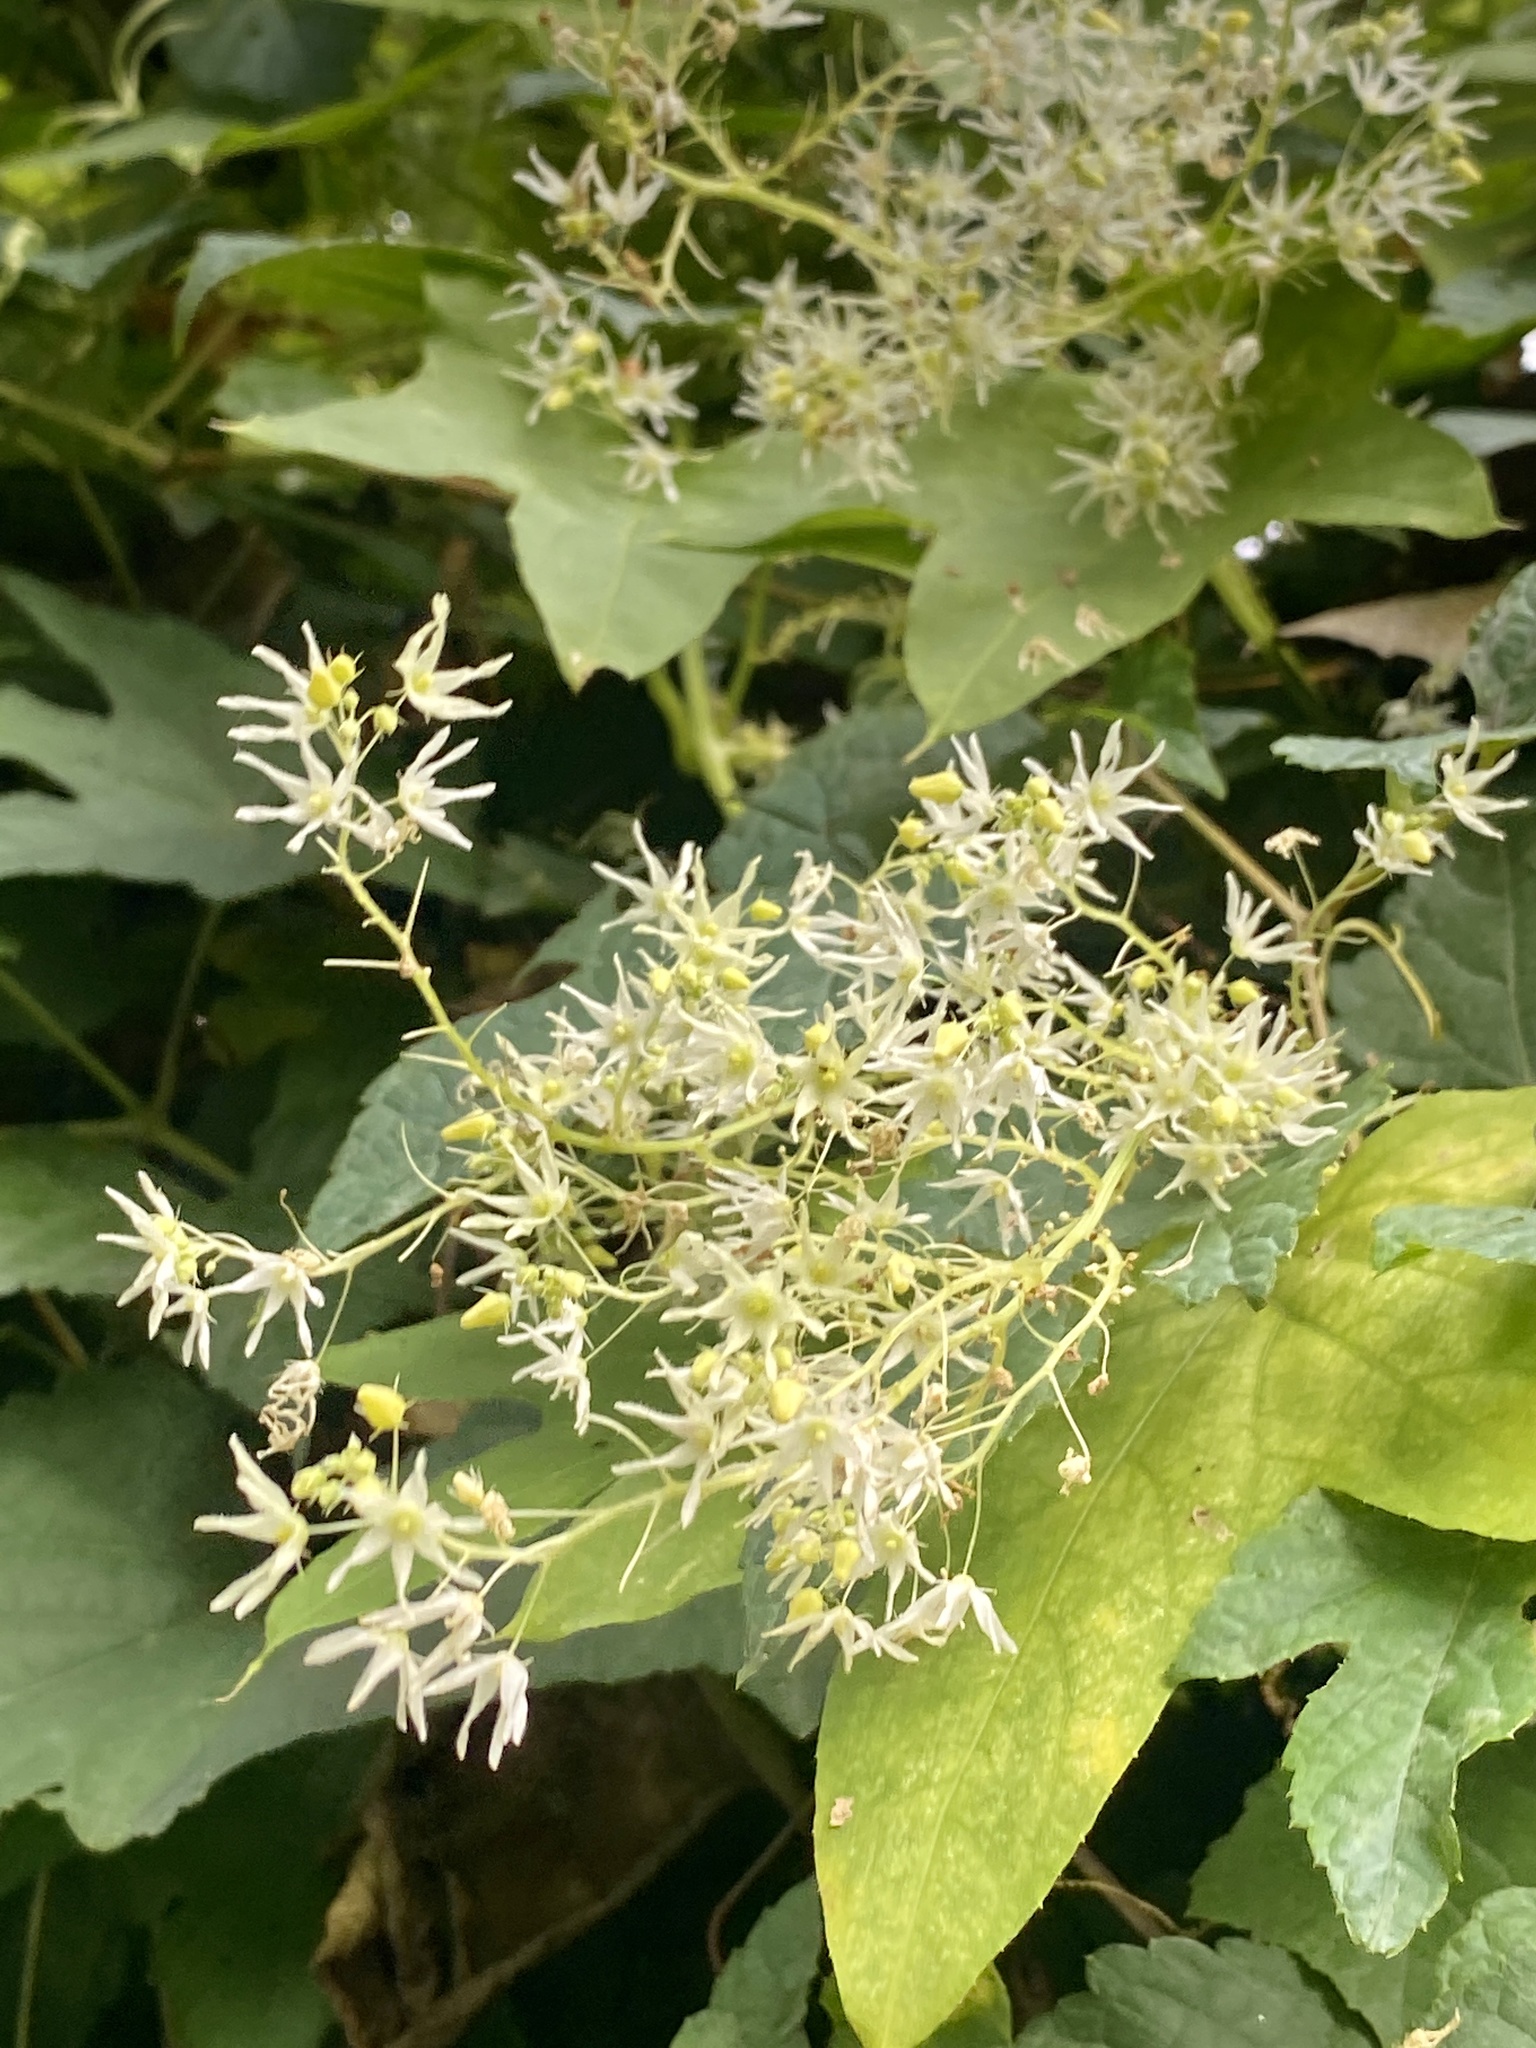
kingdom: Plantae
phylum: Tracheophyta
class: Magnoliopsida
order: Cucurbitales
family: Cucurbitaceae
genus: Echinocystis
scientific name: Echinocystis lobata
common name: Wild cucumber
